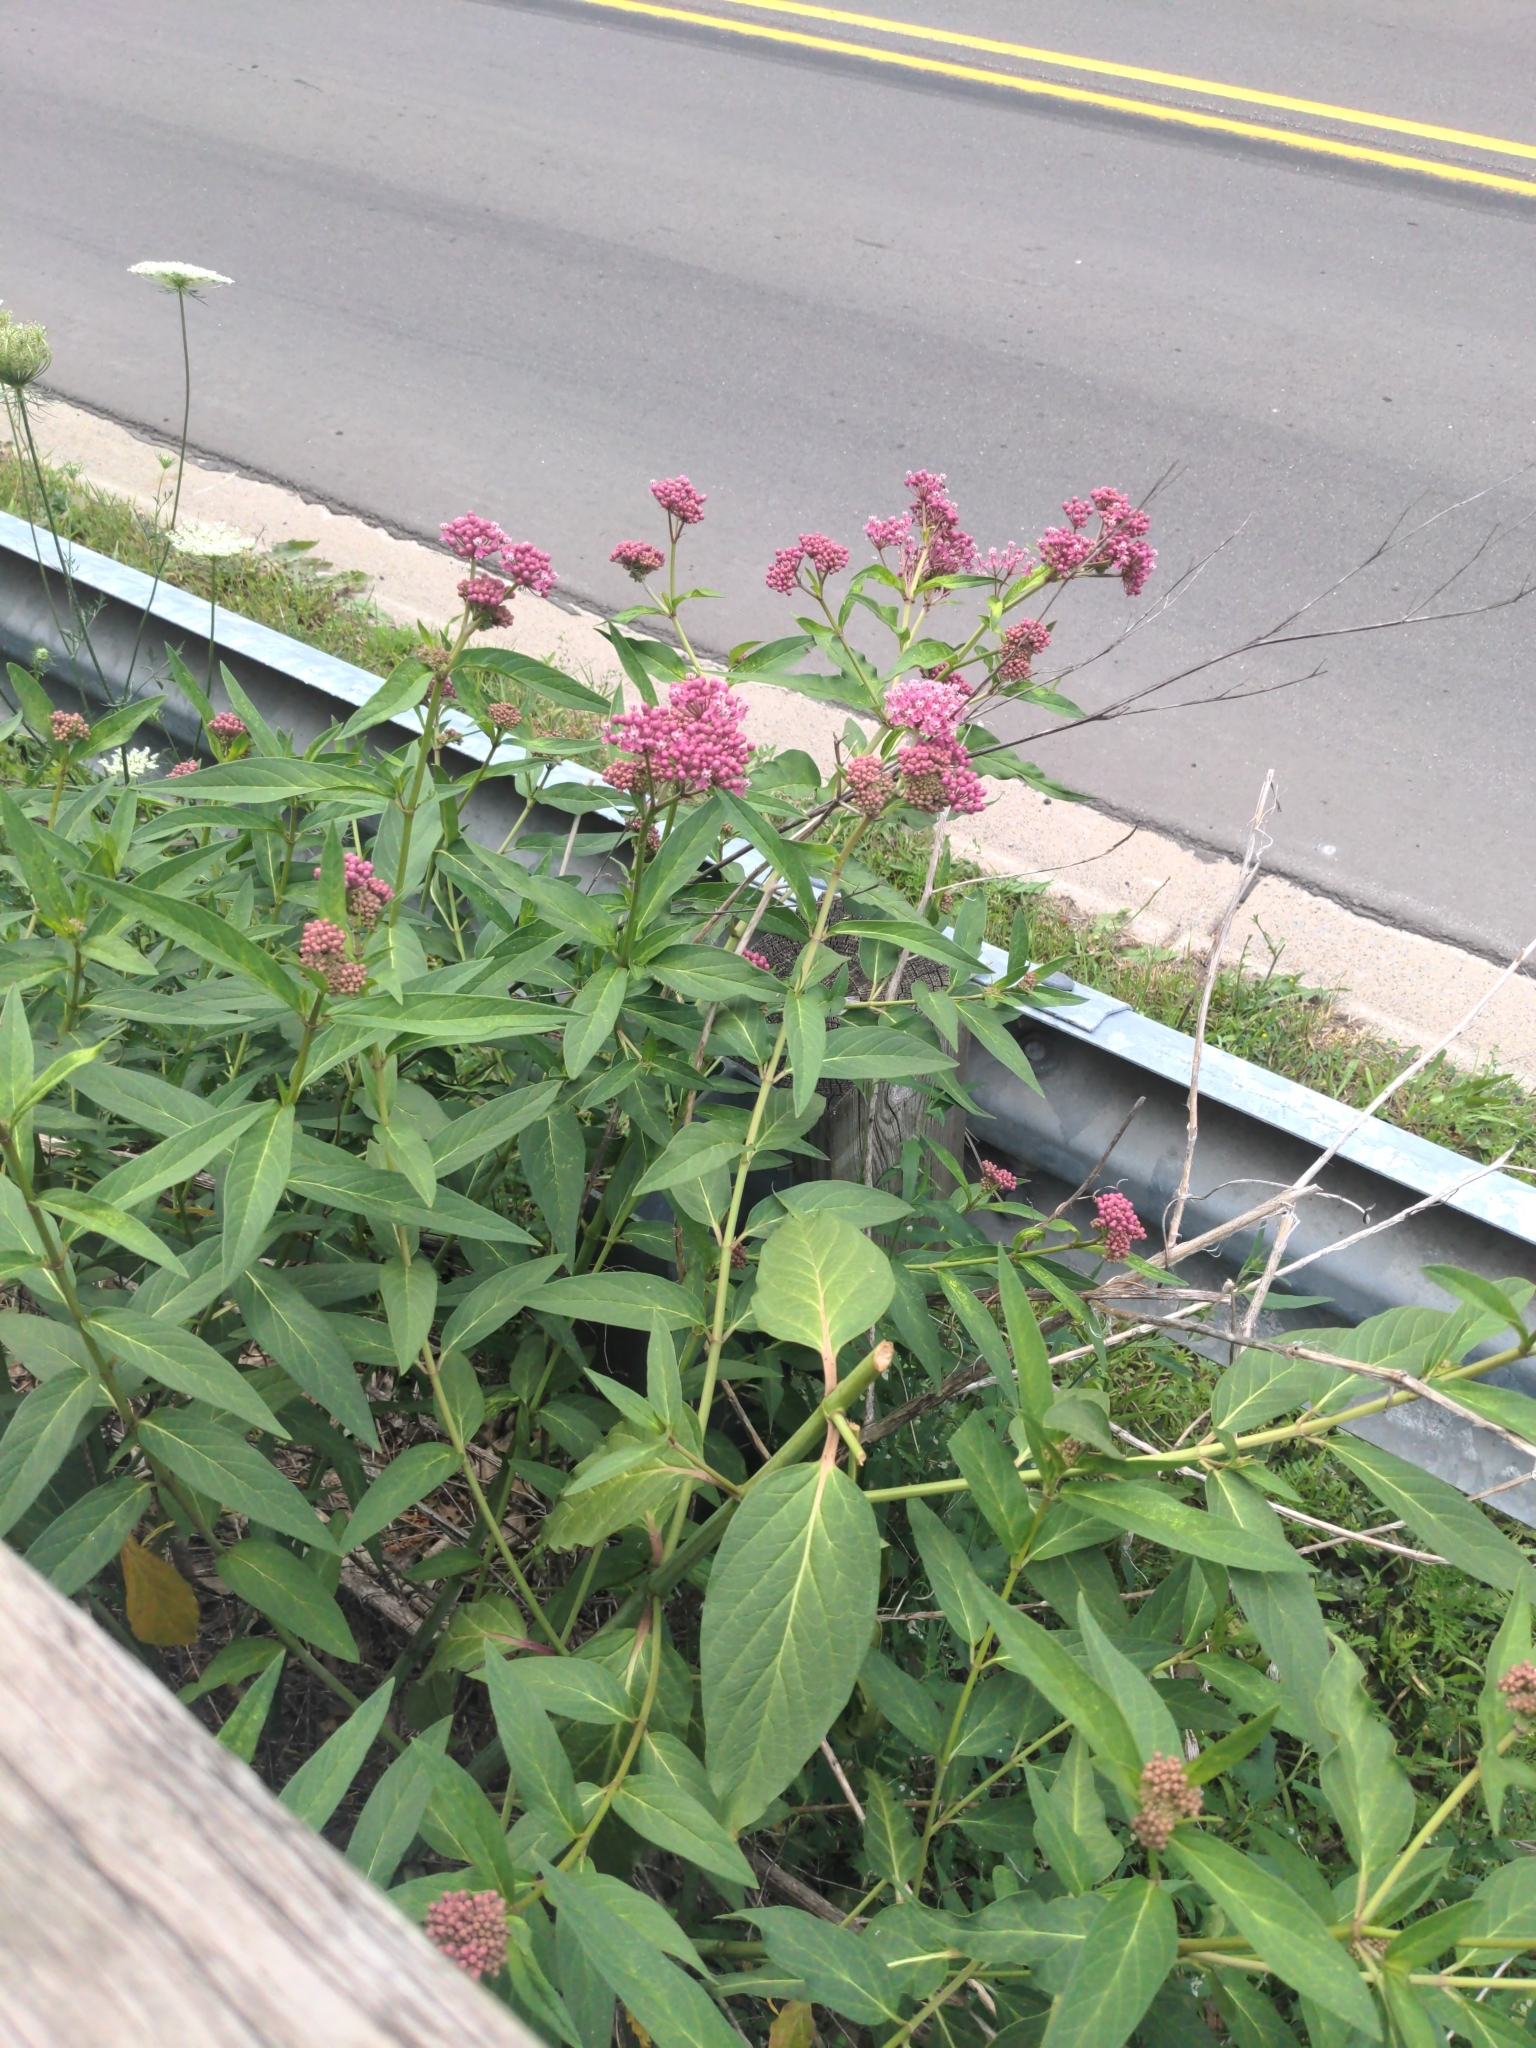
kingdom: Plantae
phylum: Tracheophyta
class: Magnoliopsida
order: Gentianales
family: Apocynaceae
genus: Asclepias
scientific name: Asclepias incarnata
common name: Swamp milkweed
